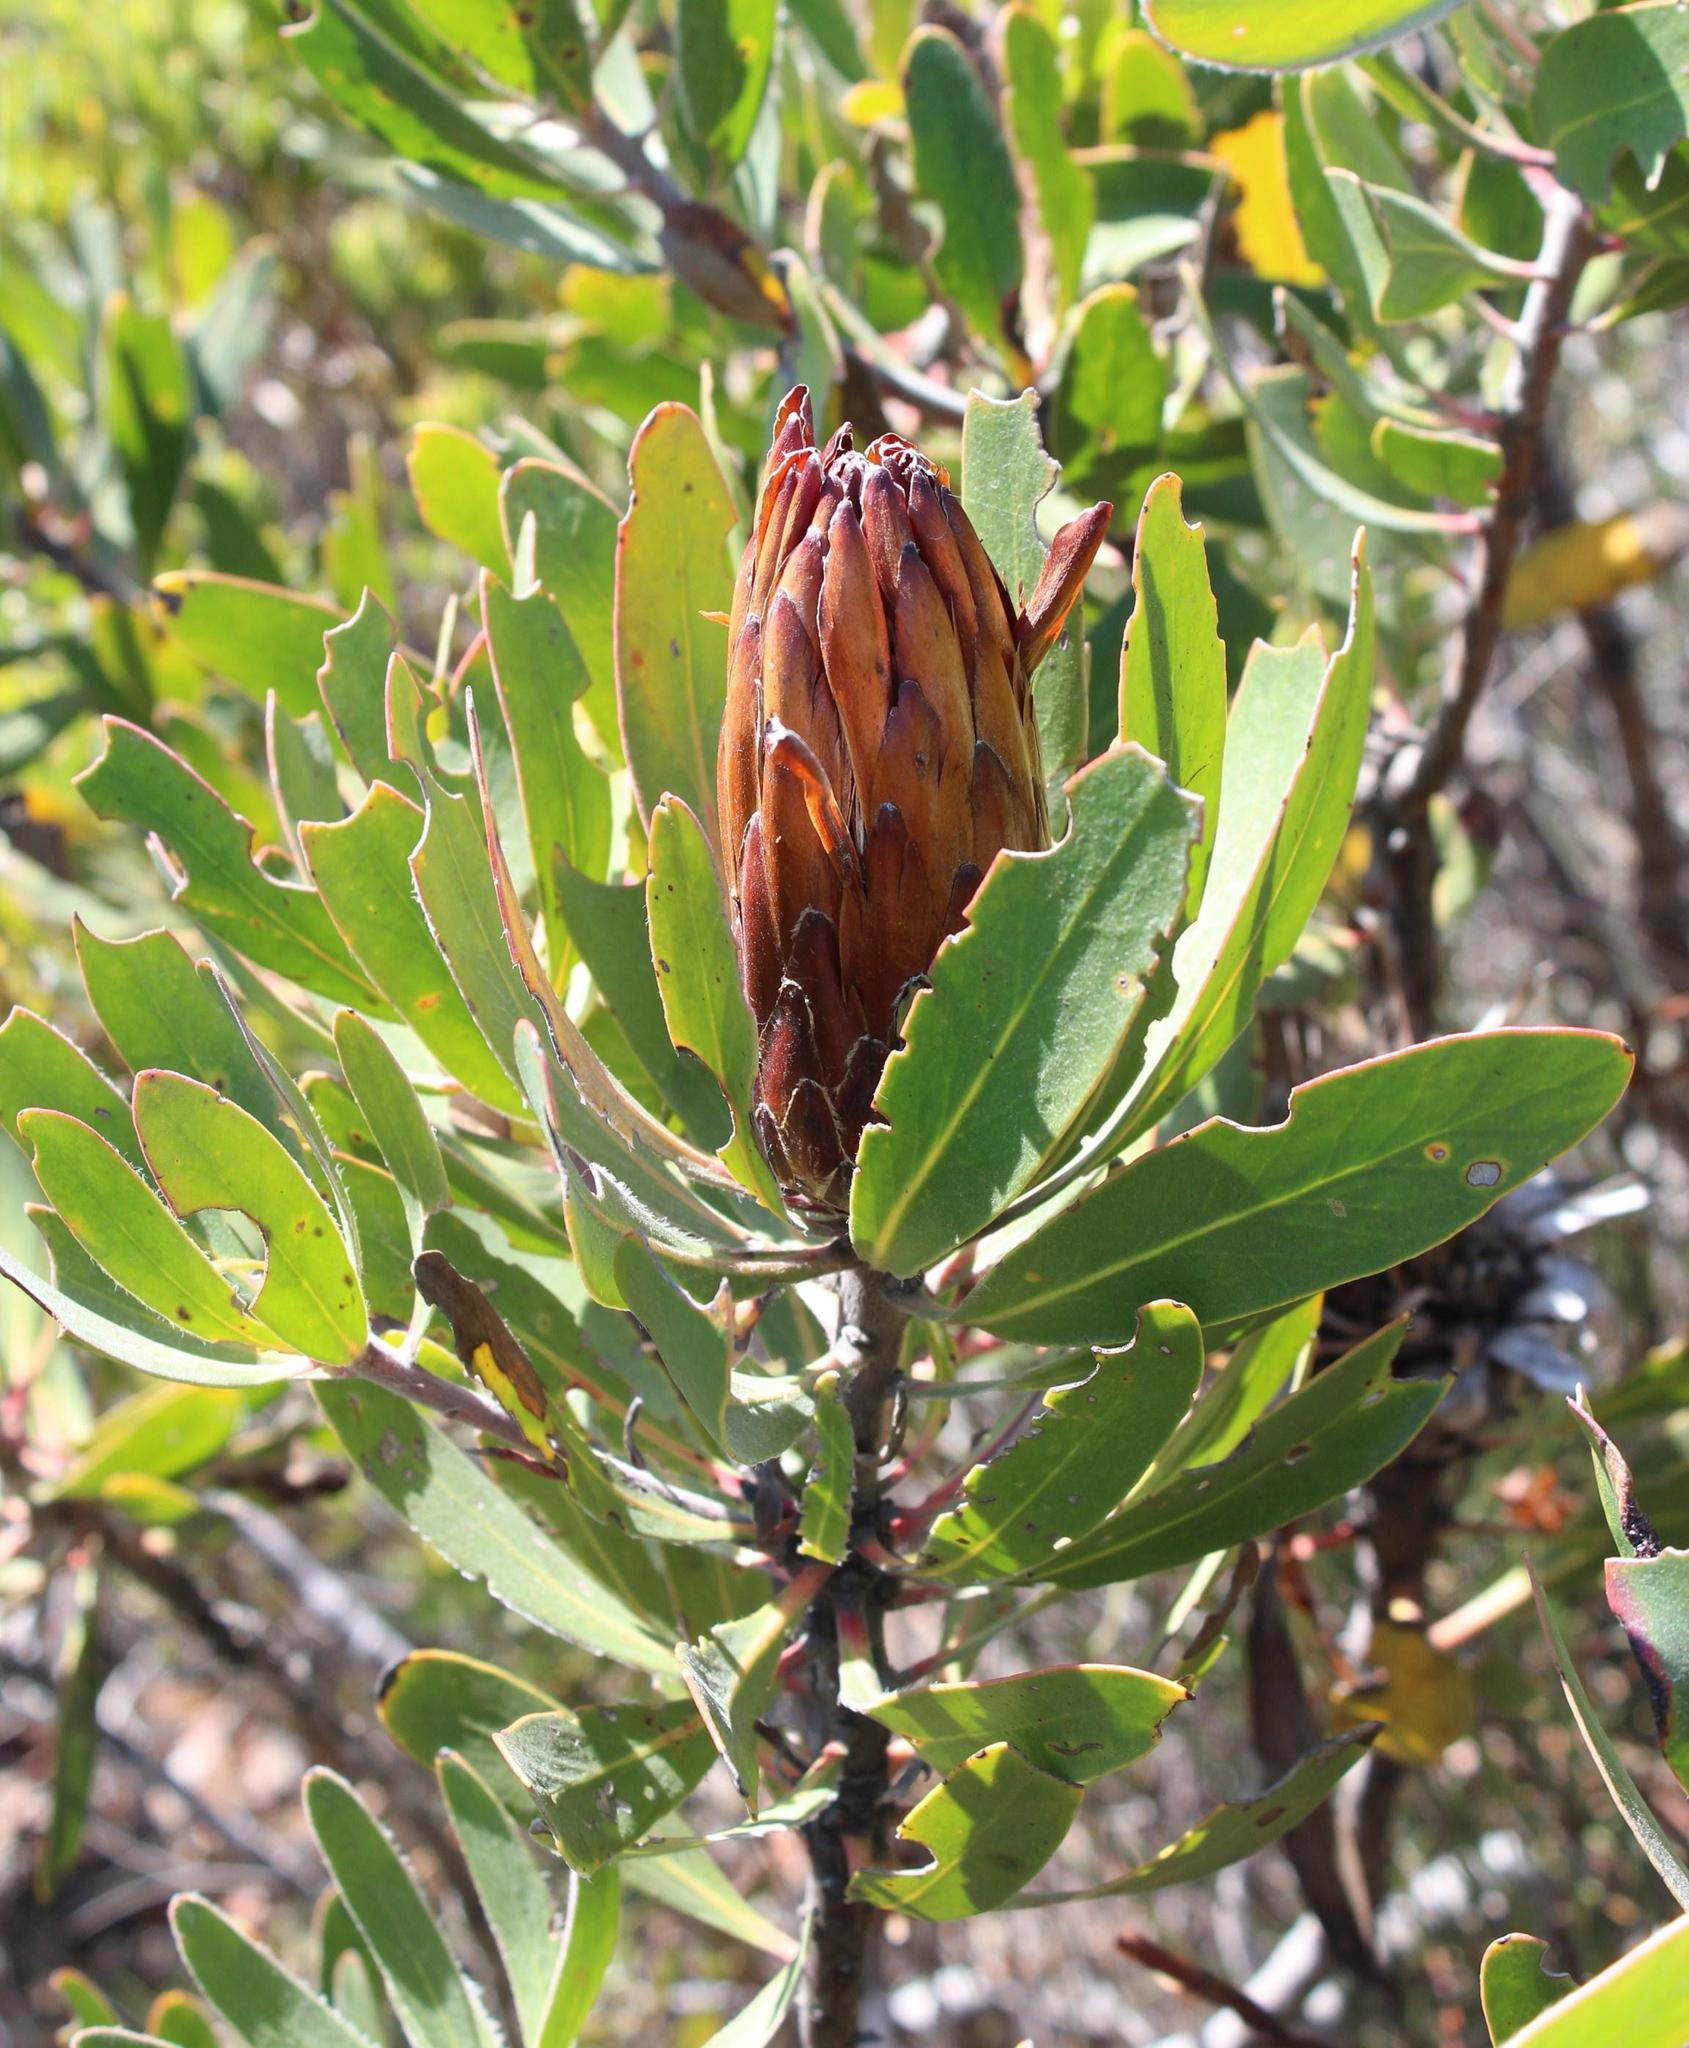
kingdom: Plantae
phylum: Tracheophyta
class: Magnoliopsida
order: Proteales
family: Proteaceae
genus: Protea
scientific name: Protea obtusifolia
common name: Bredasdorp sugarbush
